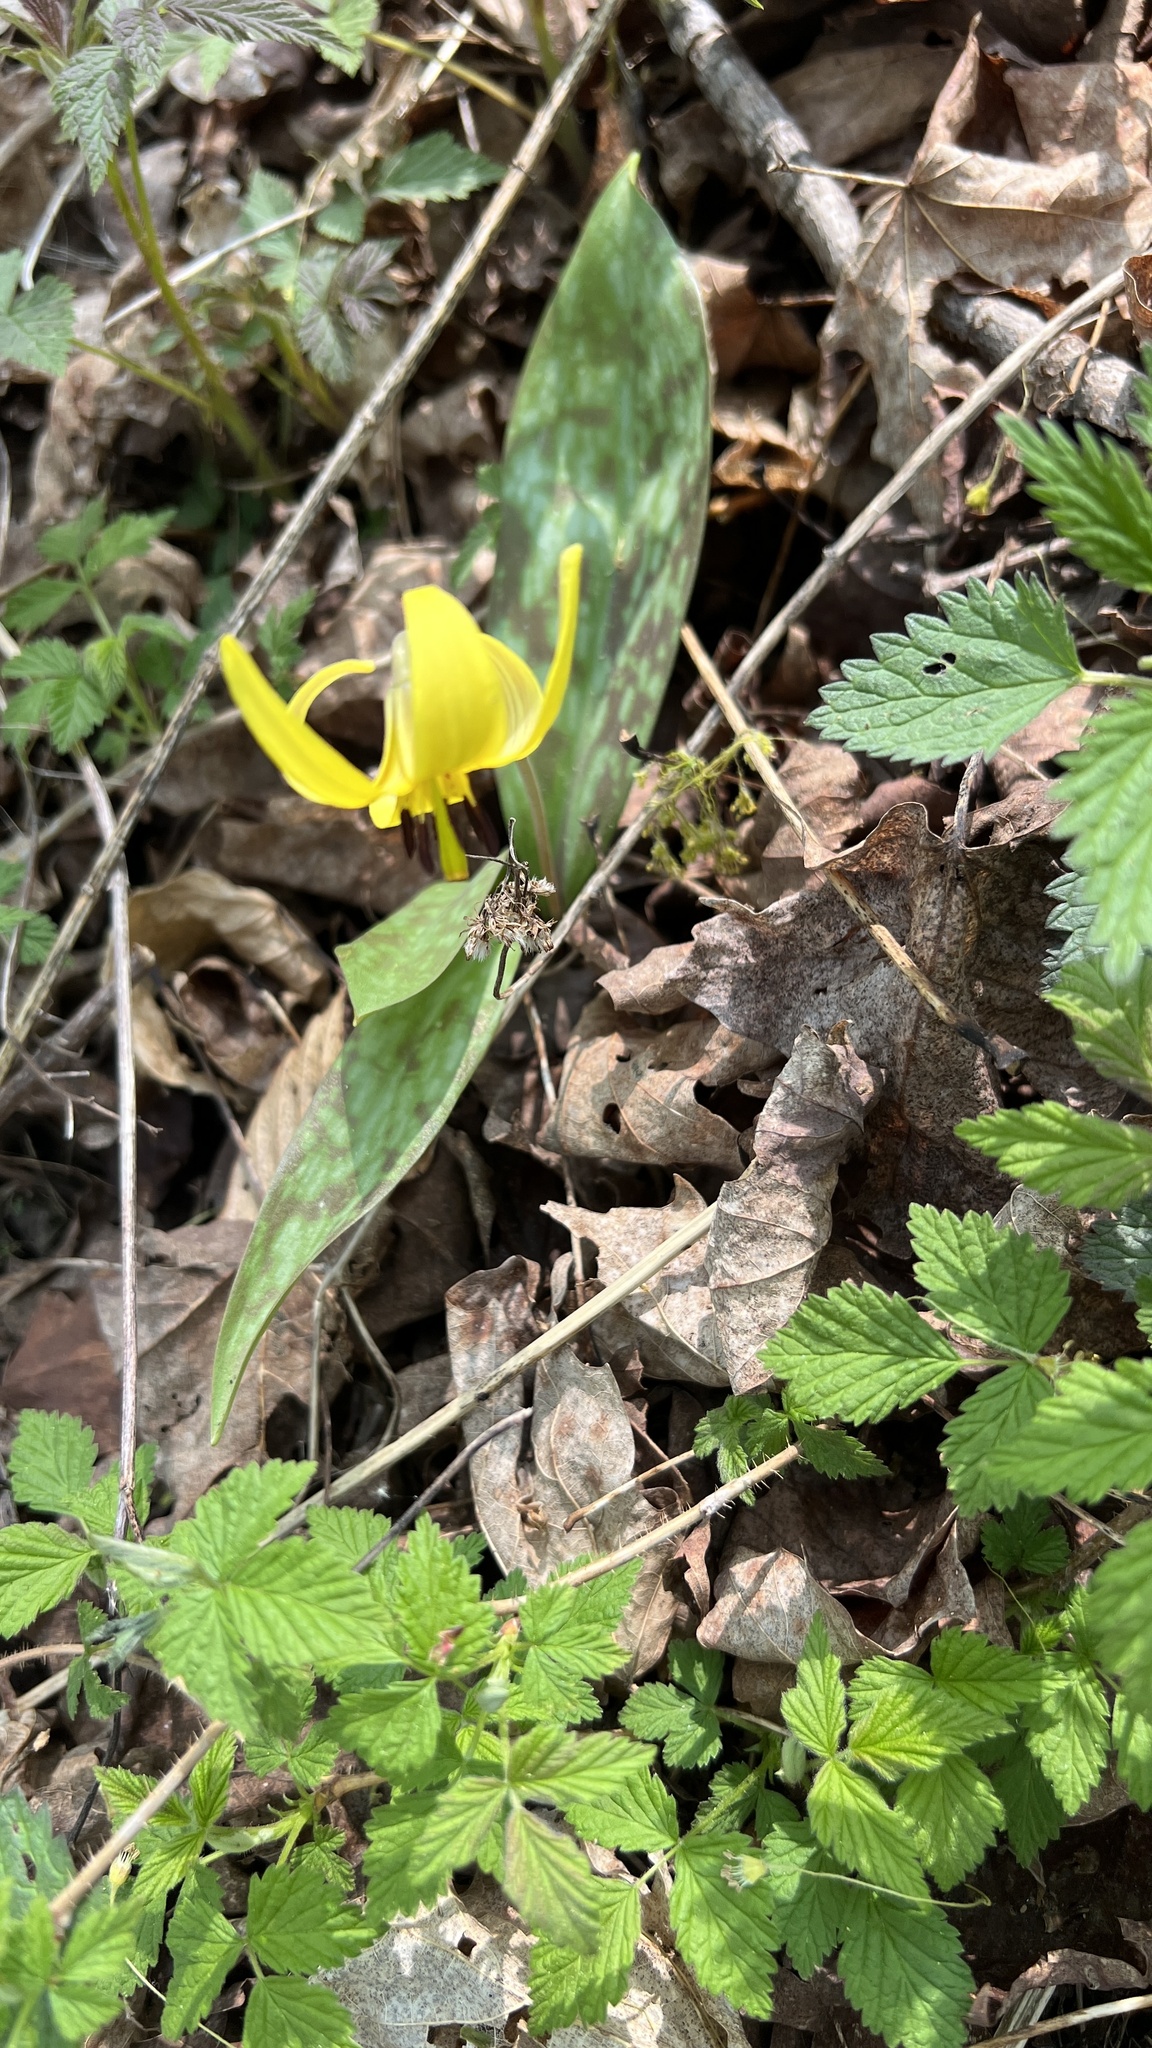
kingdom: Plantae
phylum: Tracheophyta
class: Liliopsida
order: Liliales
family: Liliaceae
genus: Erythronium
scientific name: Erythronium americanum
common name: Yellow adder's-tongue
